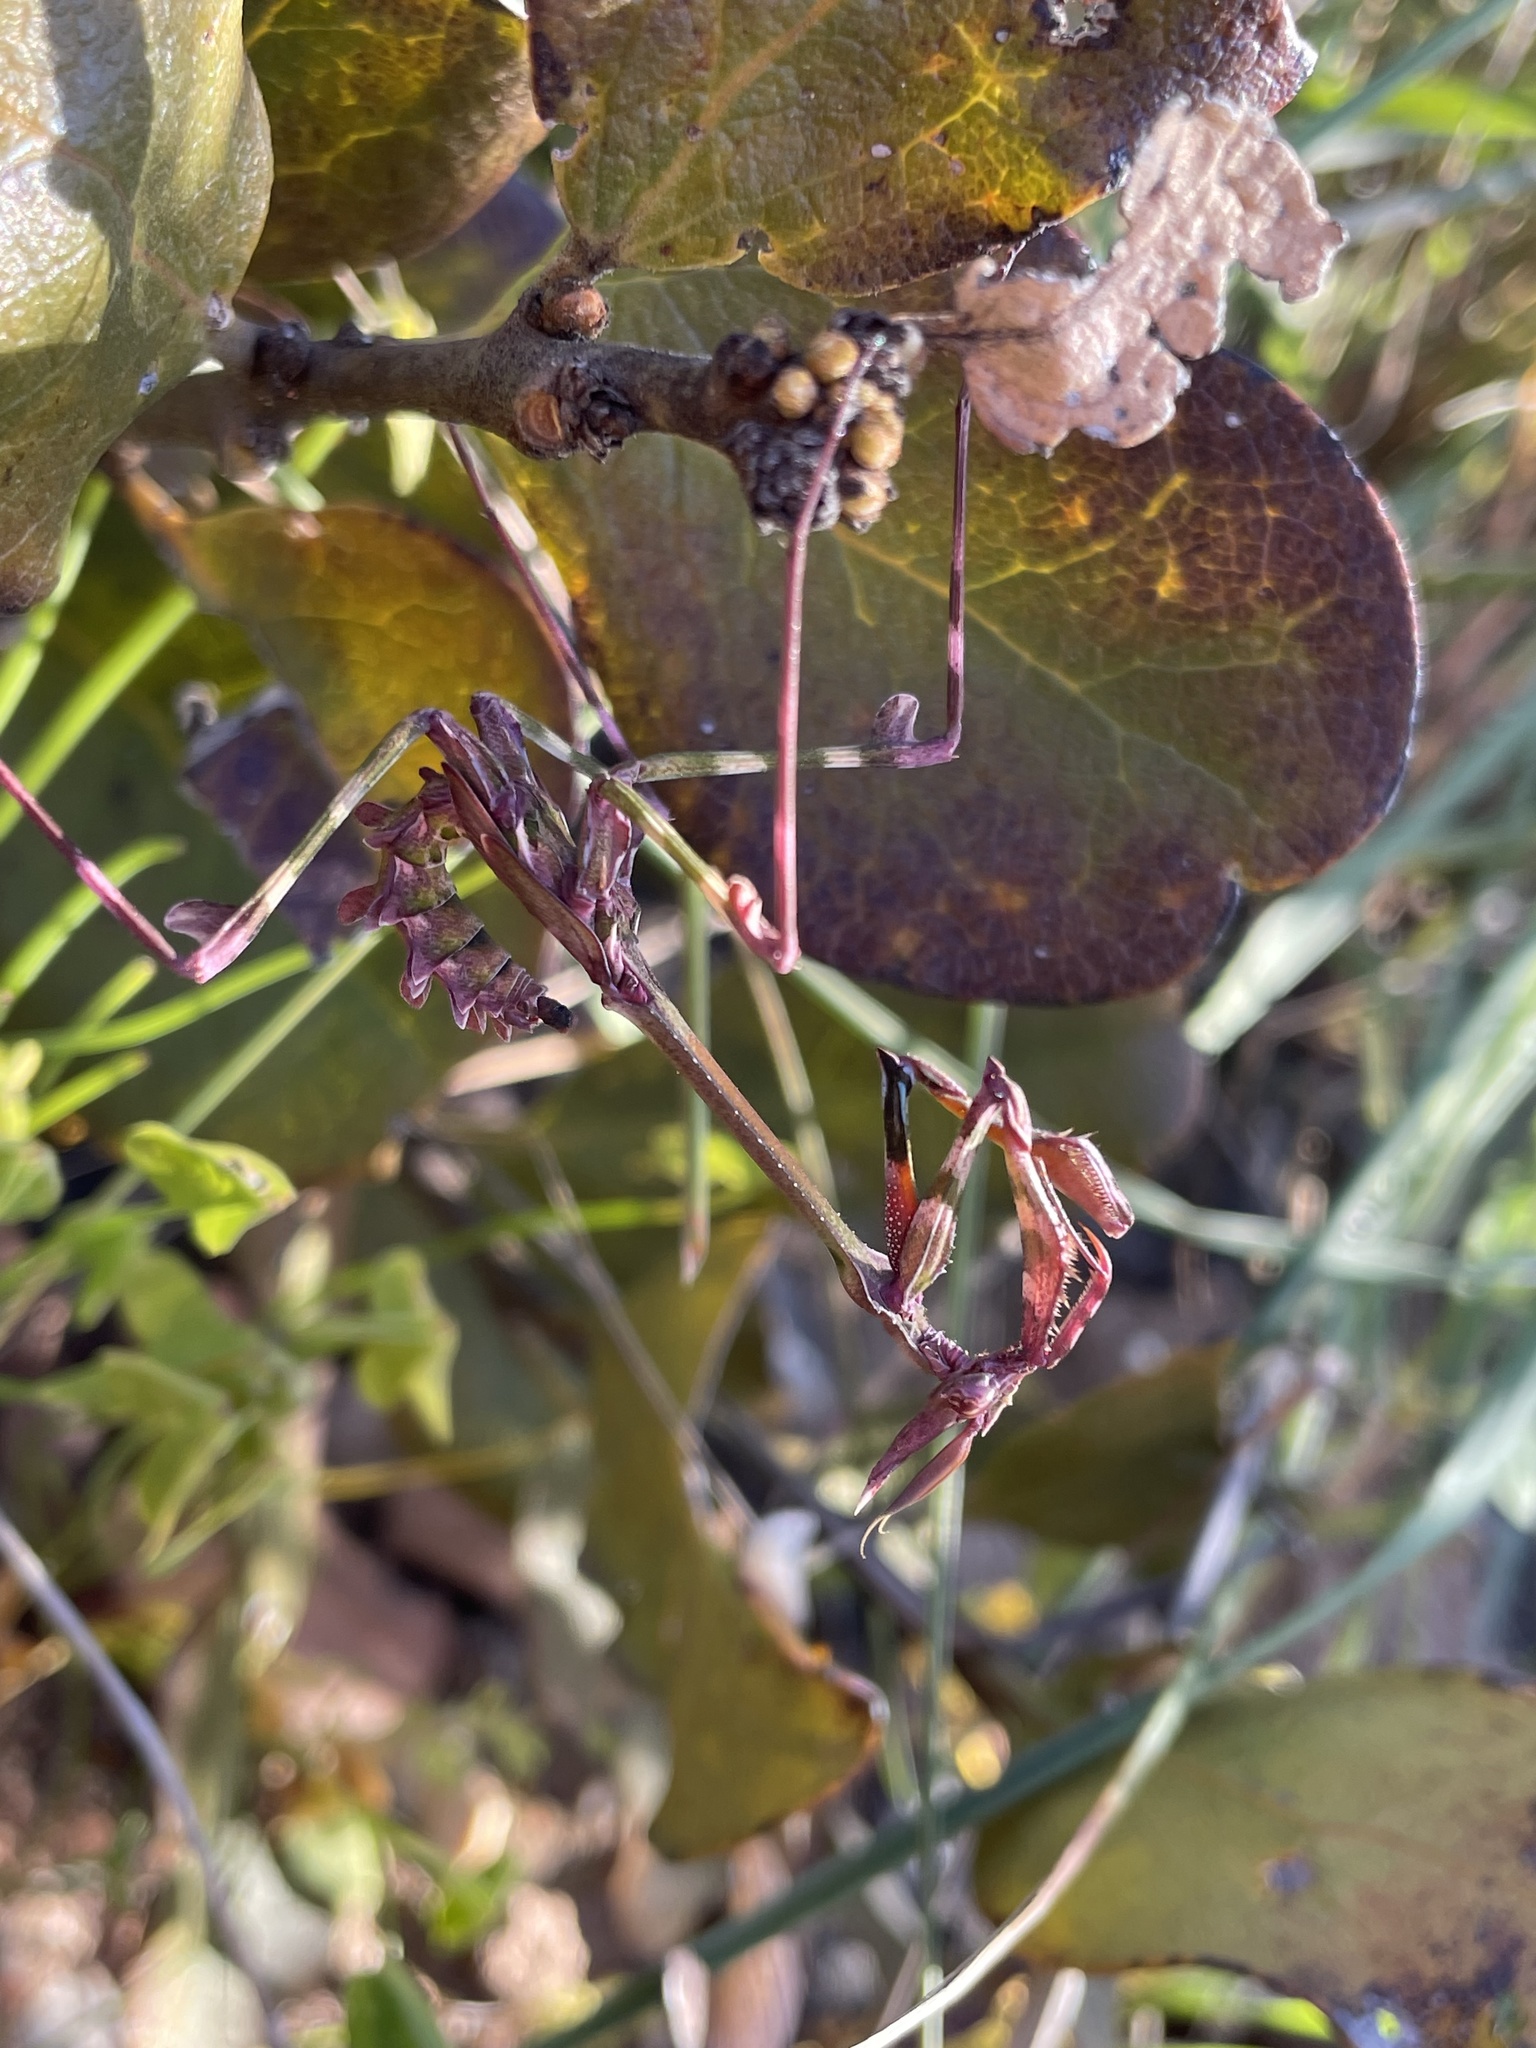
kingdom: Animalia
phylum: Arthropoda
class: Insecta
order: Mantodea
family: Empusidae
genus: Empusa
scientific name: Empusa binotata
